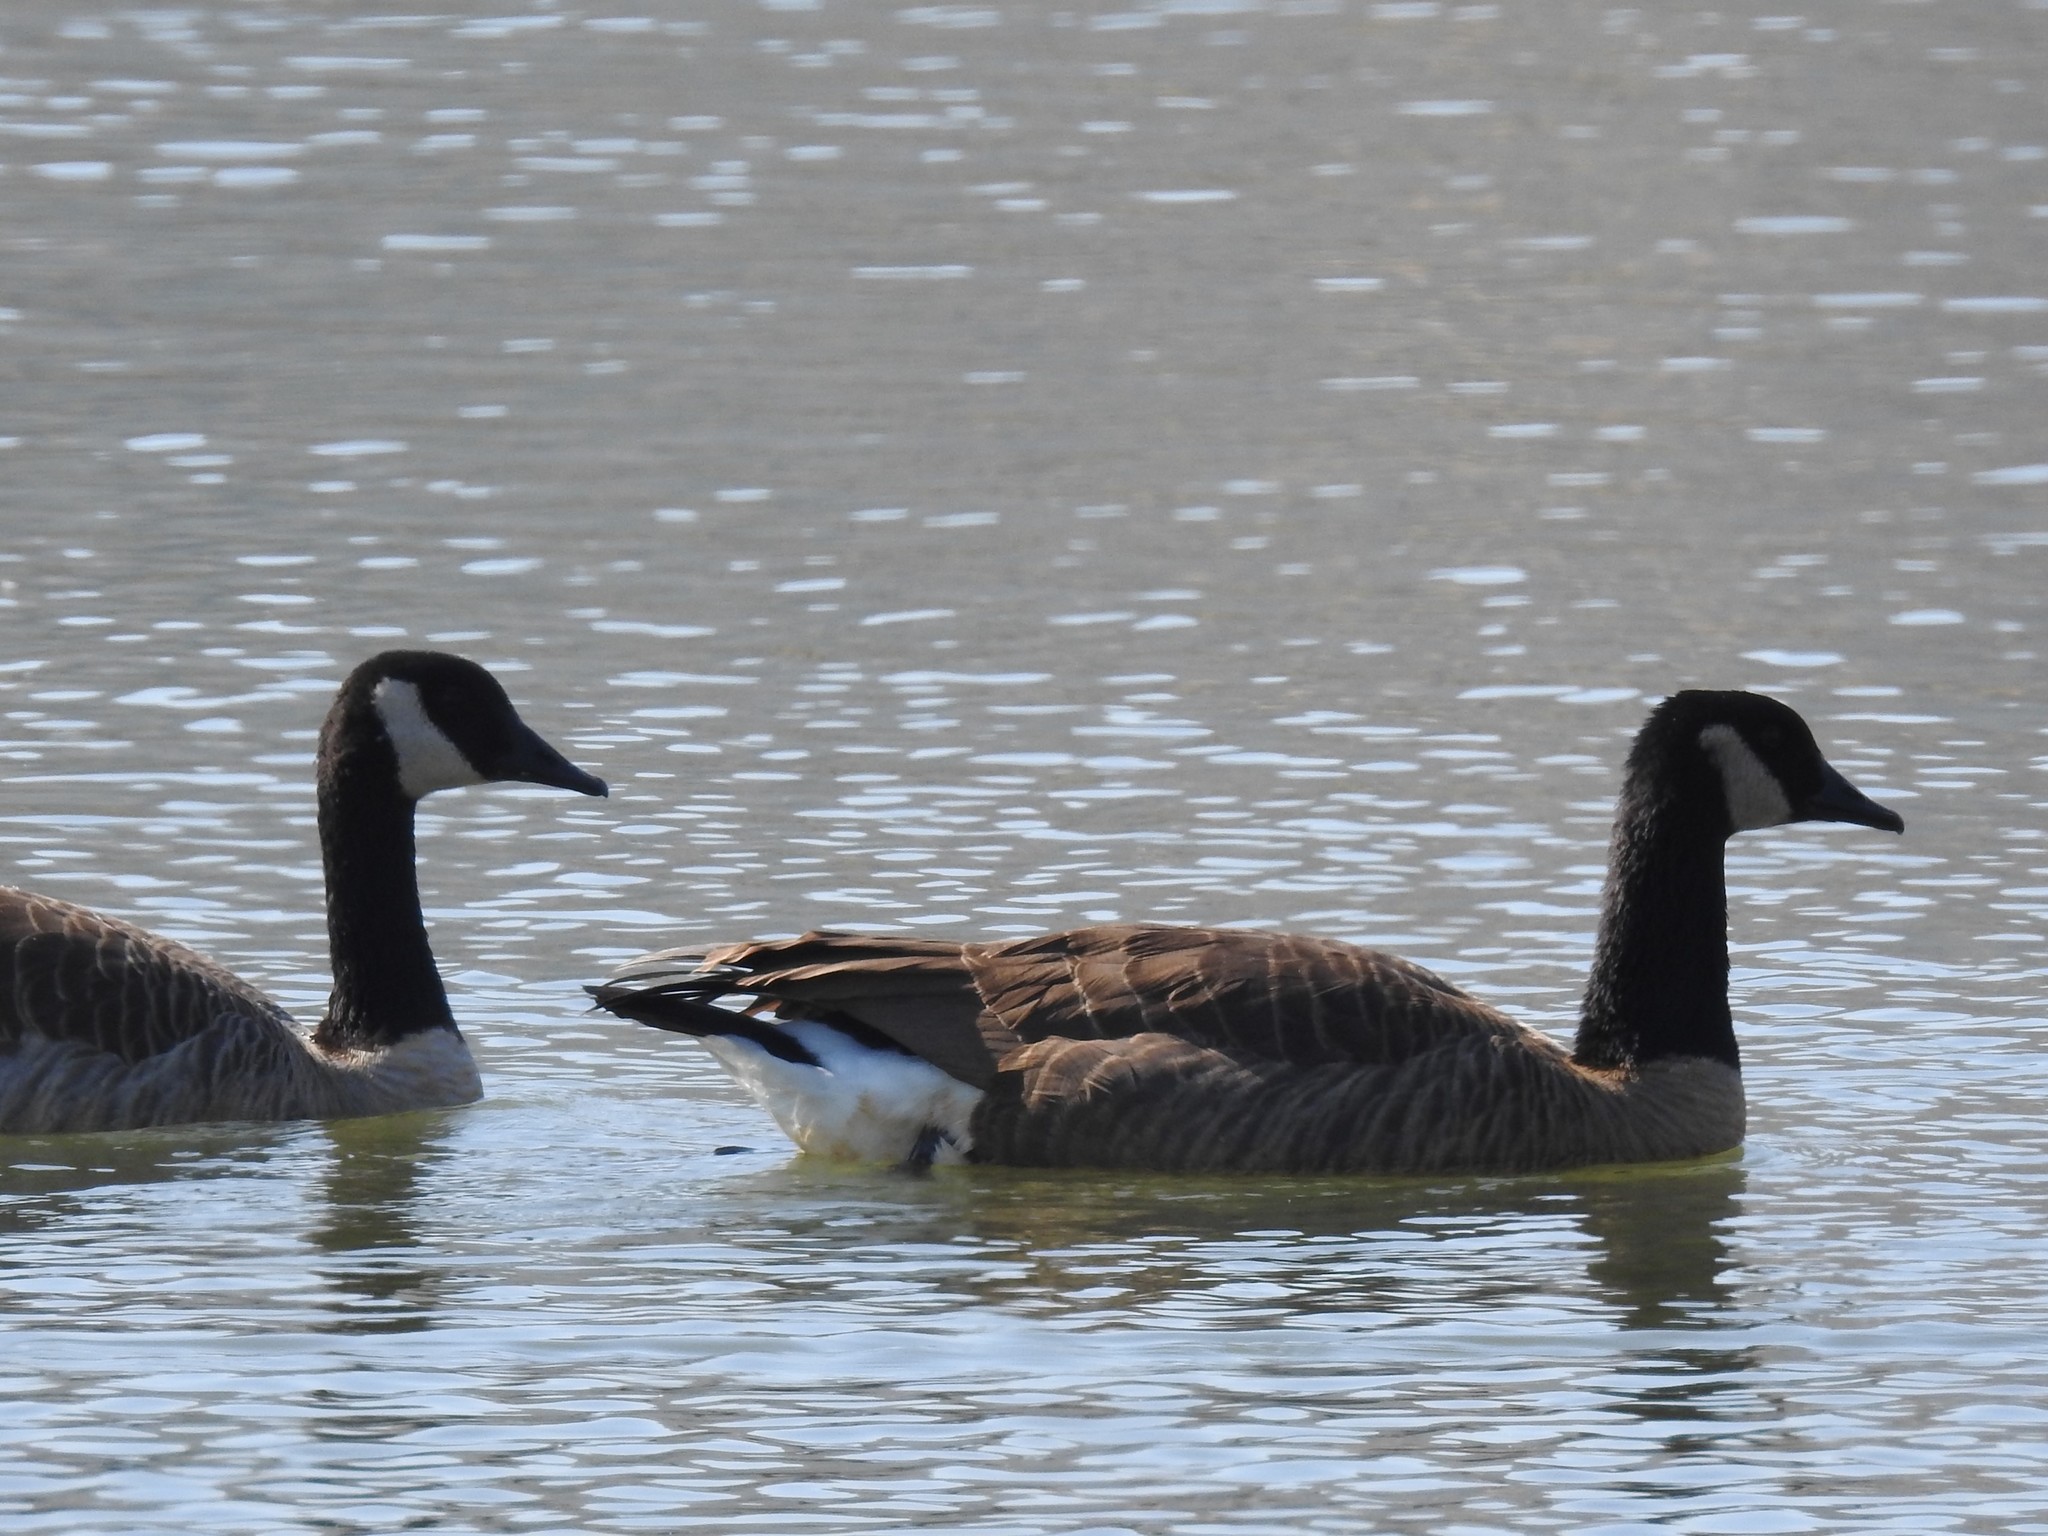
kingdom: Animalia
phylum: Chordata
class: Aves
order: Anseriformes
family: Anatidae
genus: Branta
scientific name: Branta canadensis
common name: Canada goose
